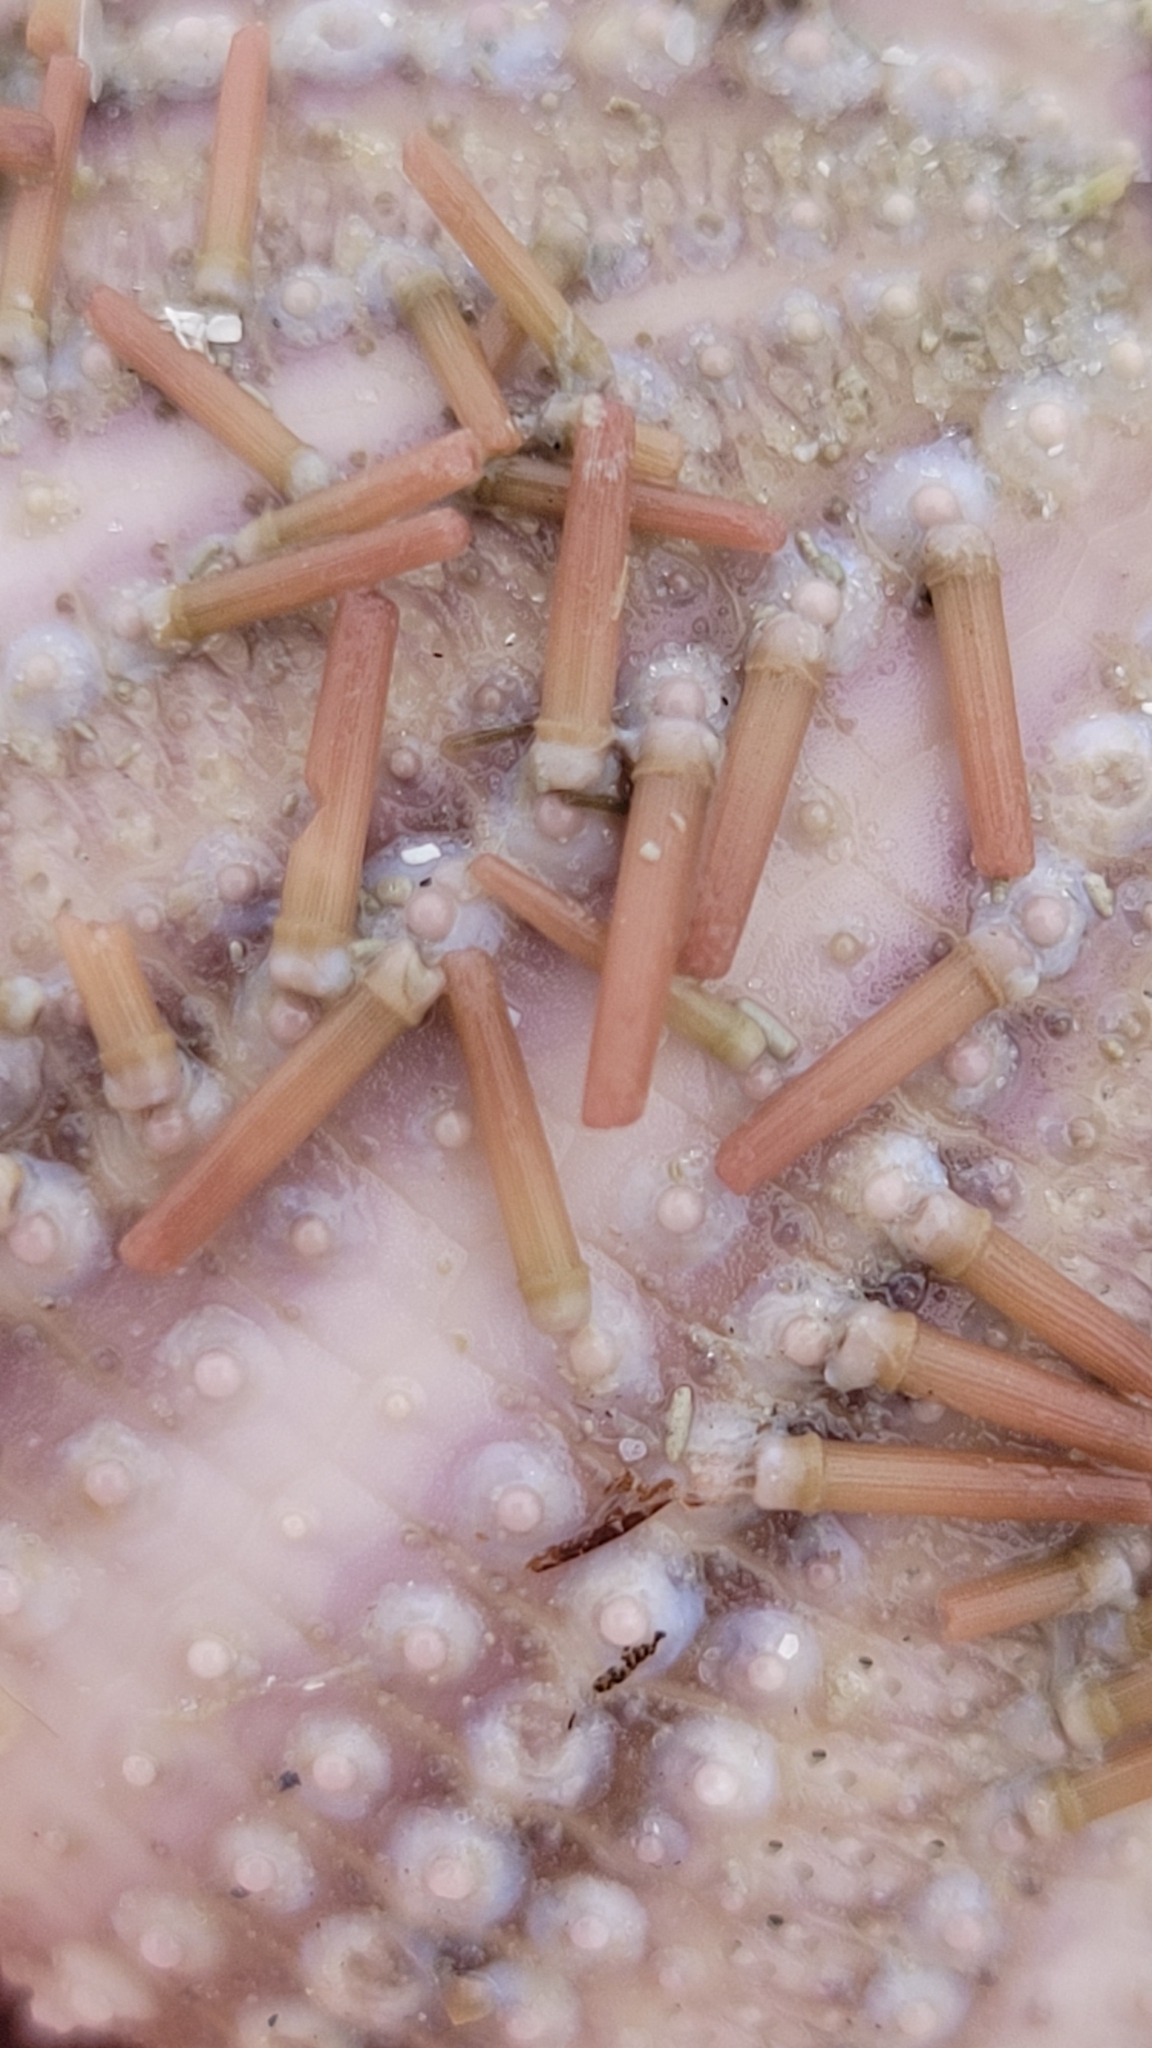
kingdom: Animalia
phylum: Echinodermata
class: Echinoidea
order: Camarodonta
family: Toxopneustidae
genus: Lytechinus
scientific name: Lytechinus variegatus
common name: Variegated urchin
